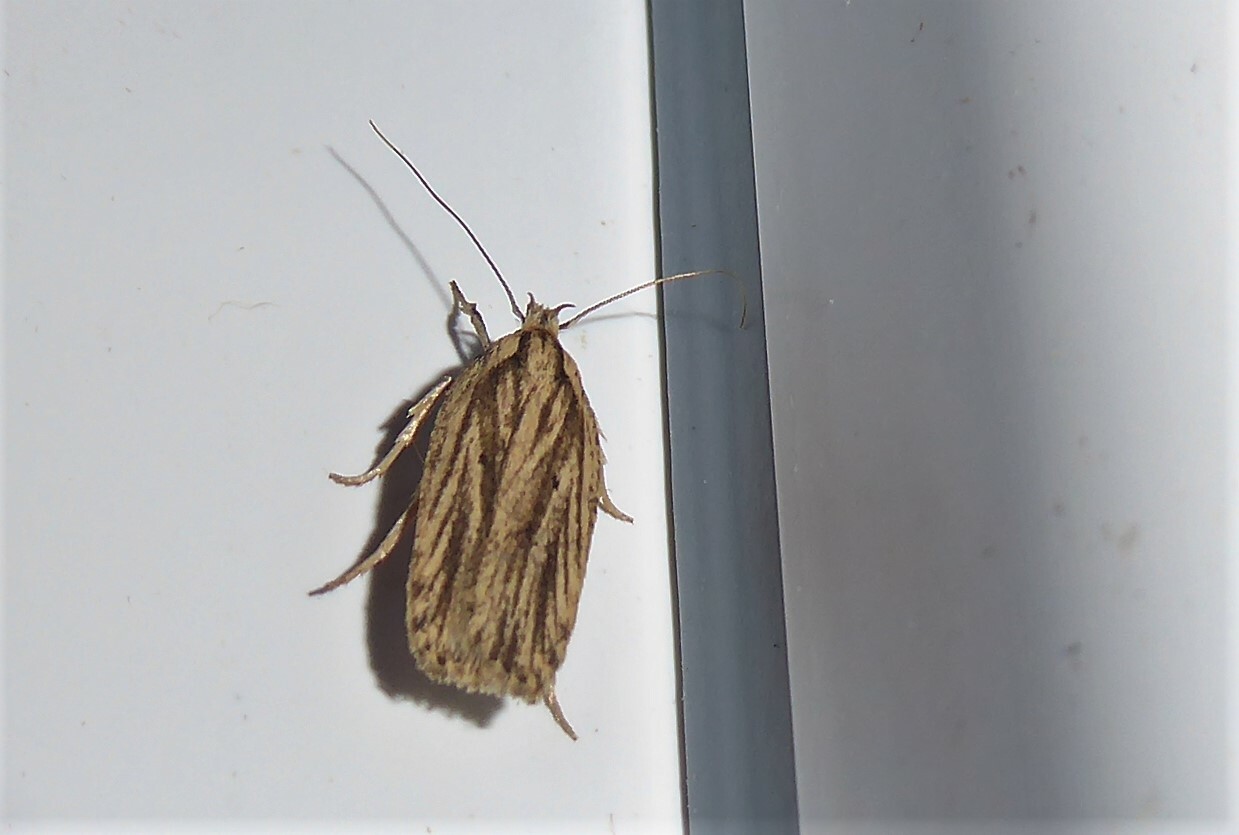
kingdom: Animalia
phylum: Arthropoda
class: Insecta
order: Lepidoptera
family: Depressariidae
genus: Agonopterix
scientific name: Agonopterix
